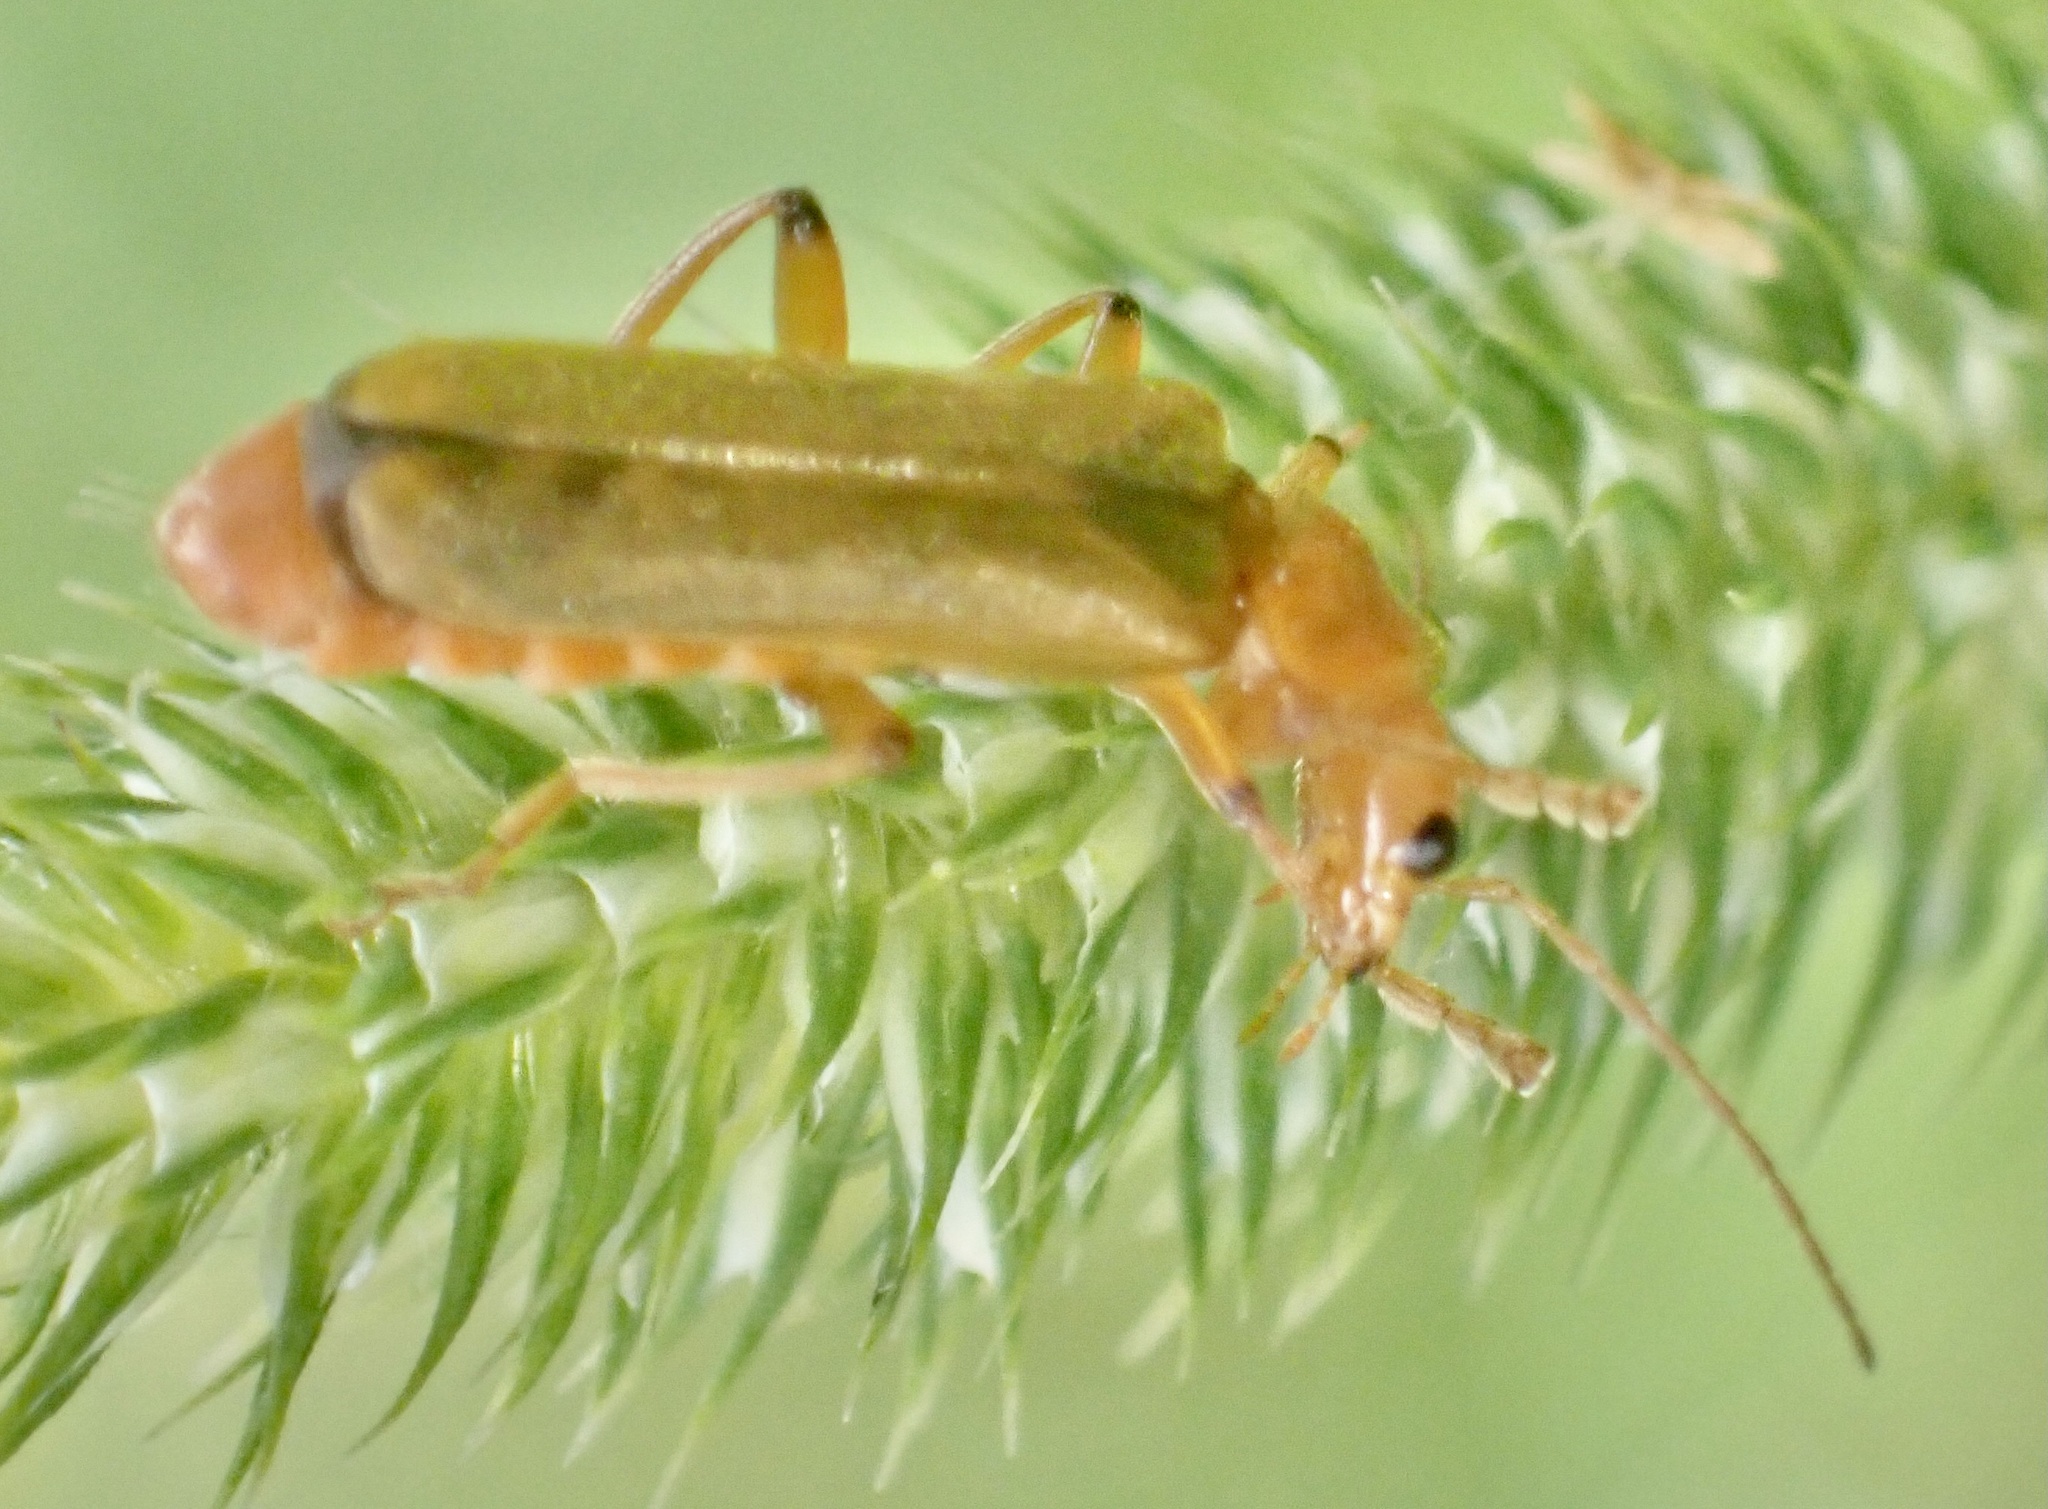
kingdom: Animalia
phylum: Arthropoda
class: Insecta
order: Coleoptera
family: Cantharidae
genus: Cantharis
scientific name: Cantharis cryptica
